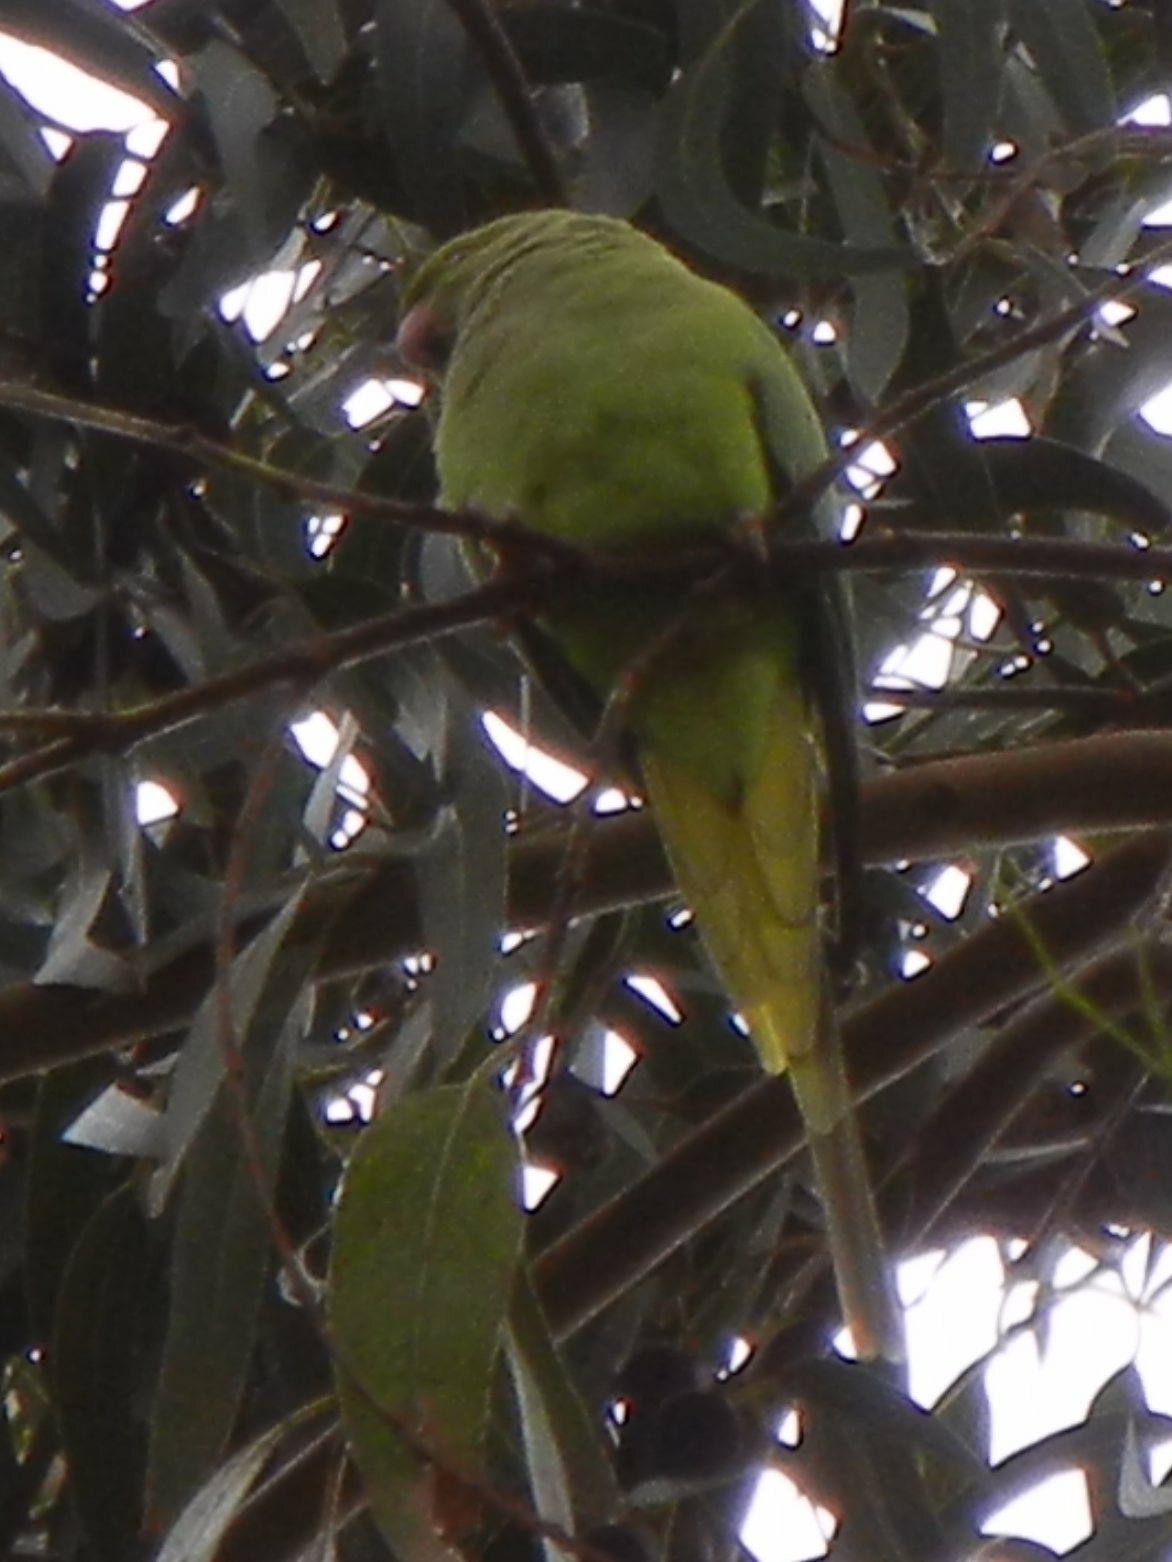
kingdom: Animalia
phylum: Chordata
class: Aves
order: Psittaciformes
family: Psittacidae
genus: Psittacula
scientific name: Psittacula krameri
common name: Rose-ringed parakeet
